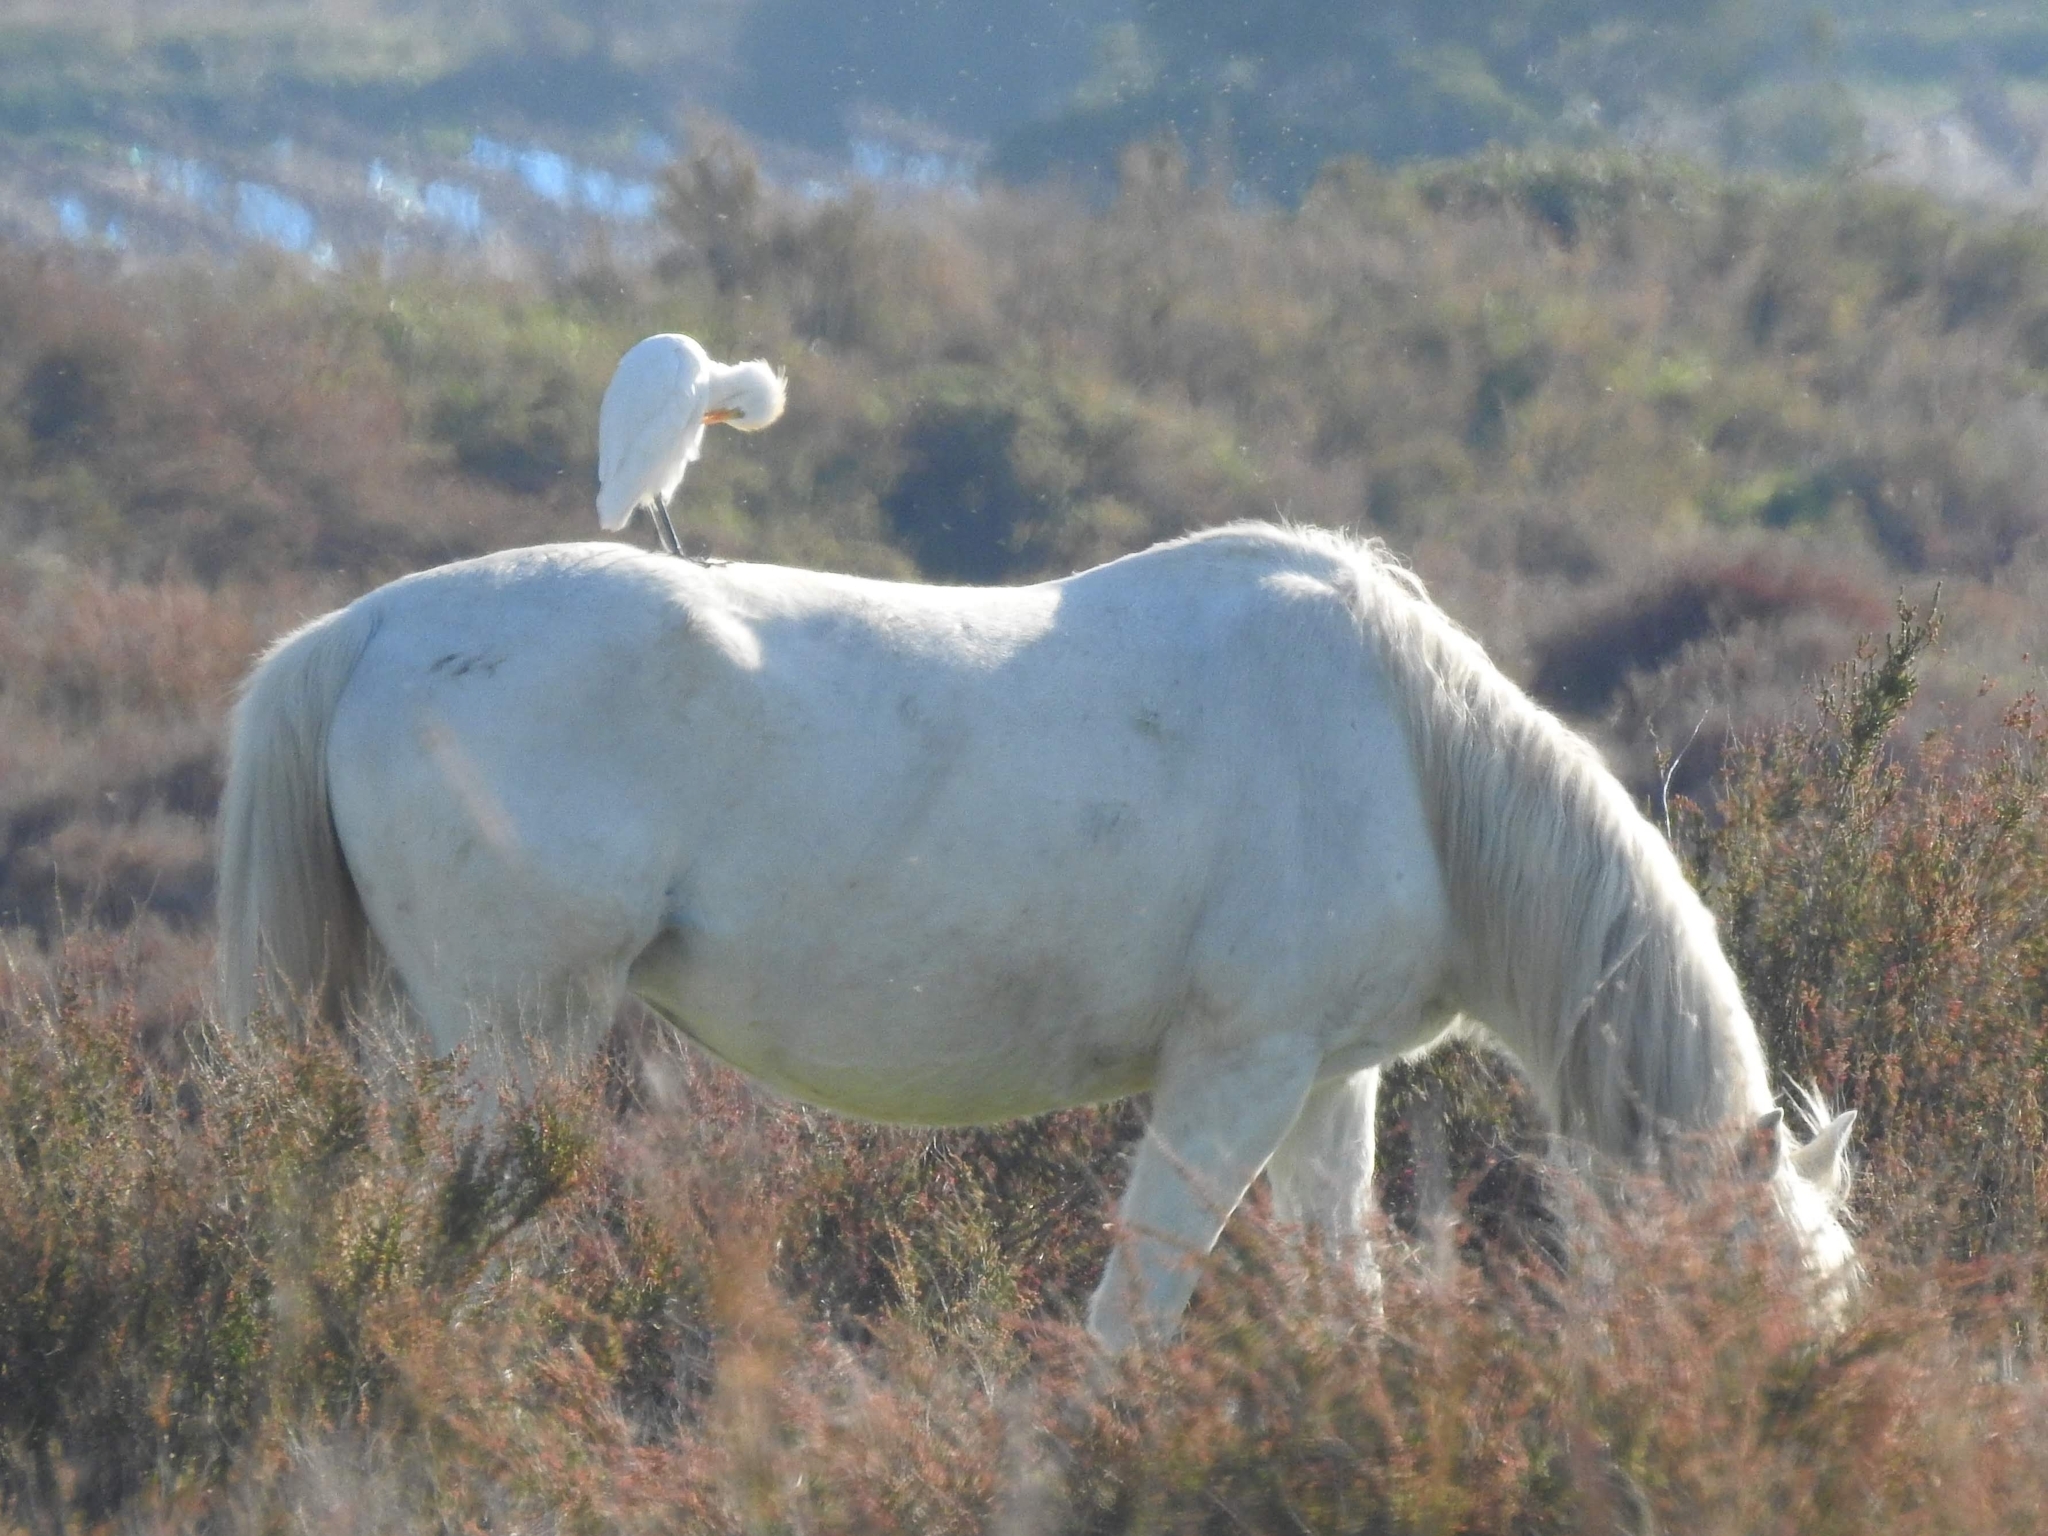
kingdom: Animalia
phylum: Chordata
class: Aves
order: Pelecaniformes
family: Ardeidae
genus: Bubulcus
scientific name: Bubulcus ibis
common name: Cattle egret
